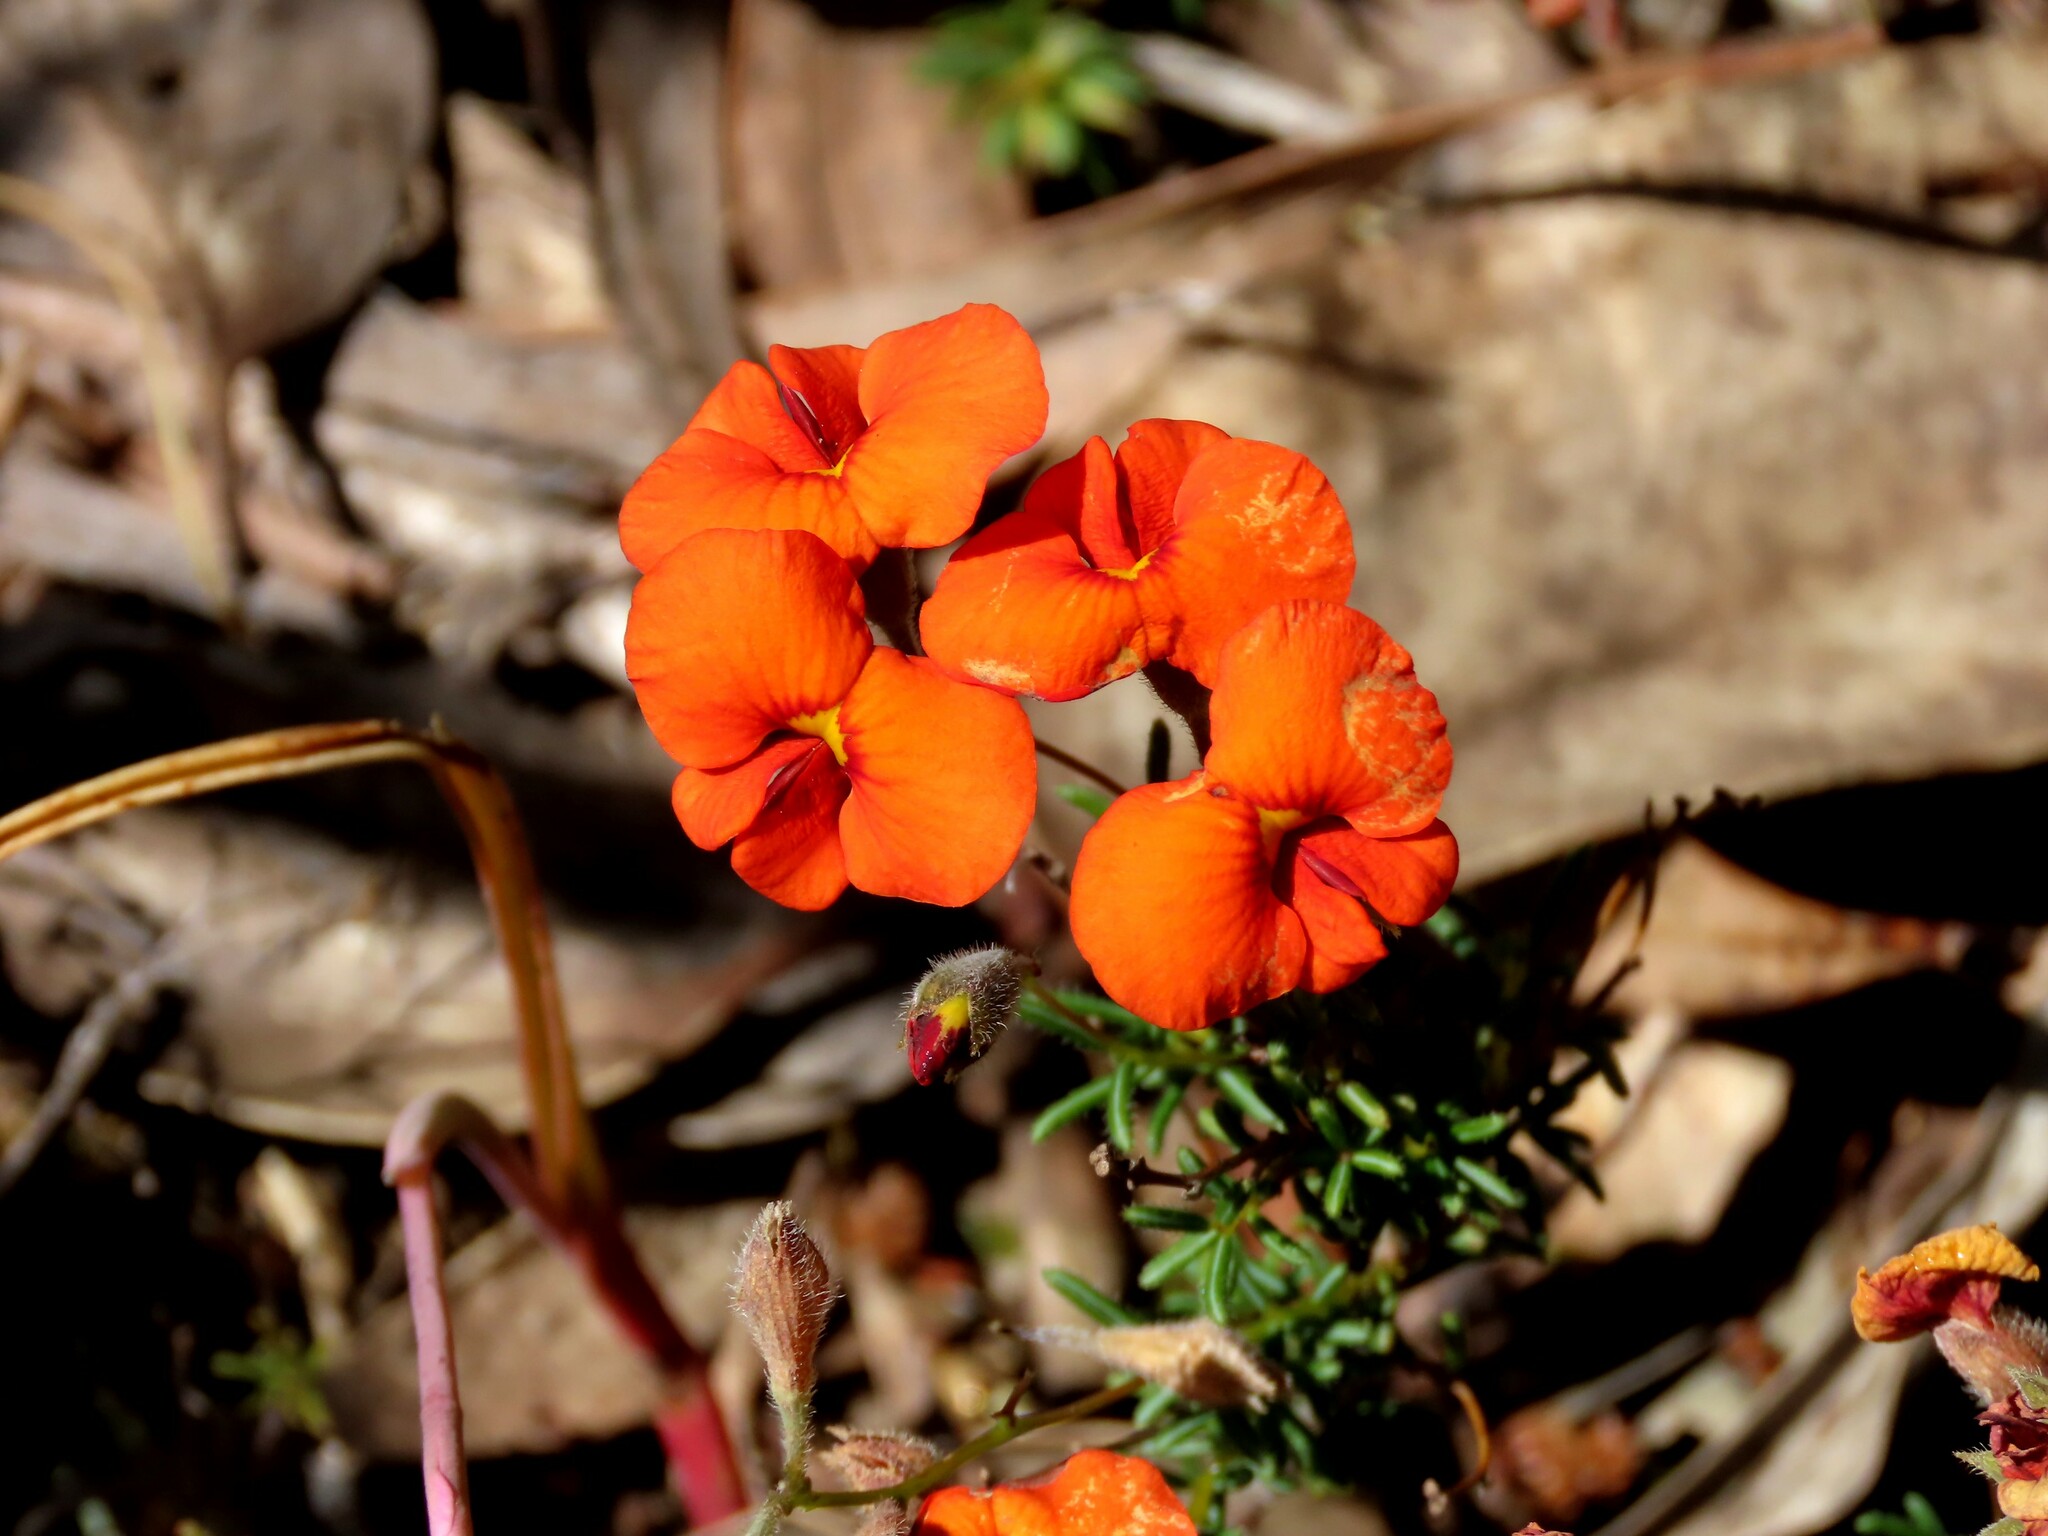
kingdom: Plantae
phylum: Tracheophyta
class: Magnoliopsida
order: Fabales
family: Fabaceae
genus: Dillwynia
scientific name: Dillwynia hispida
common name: Red parrot-pea
